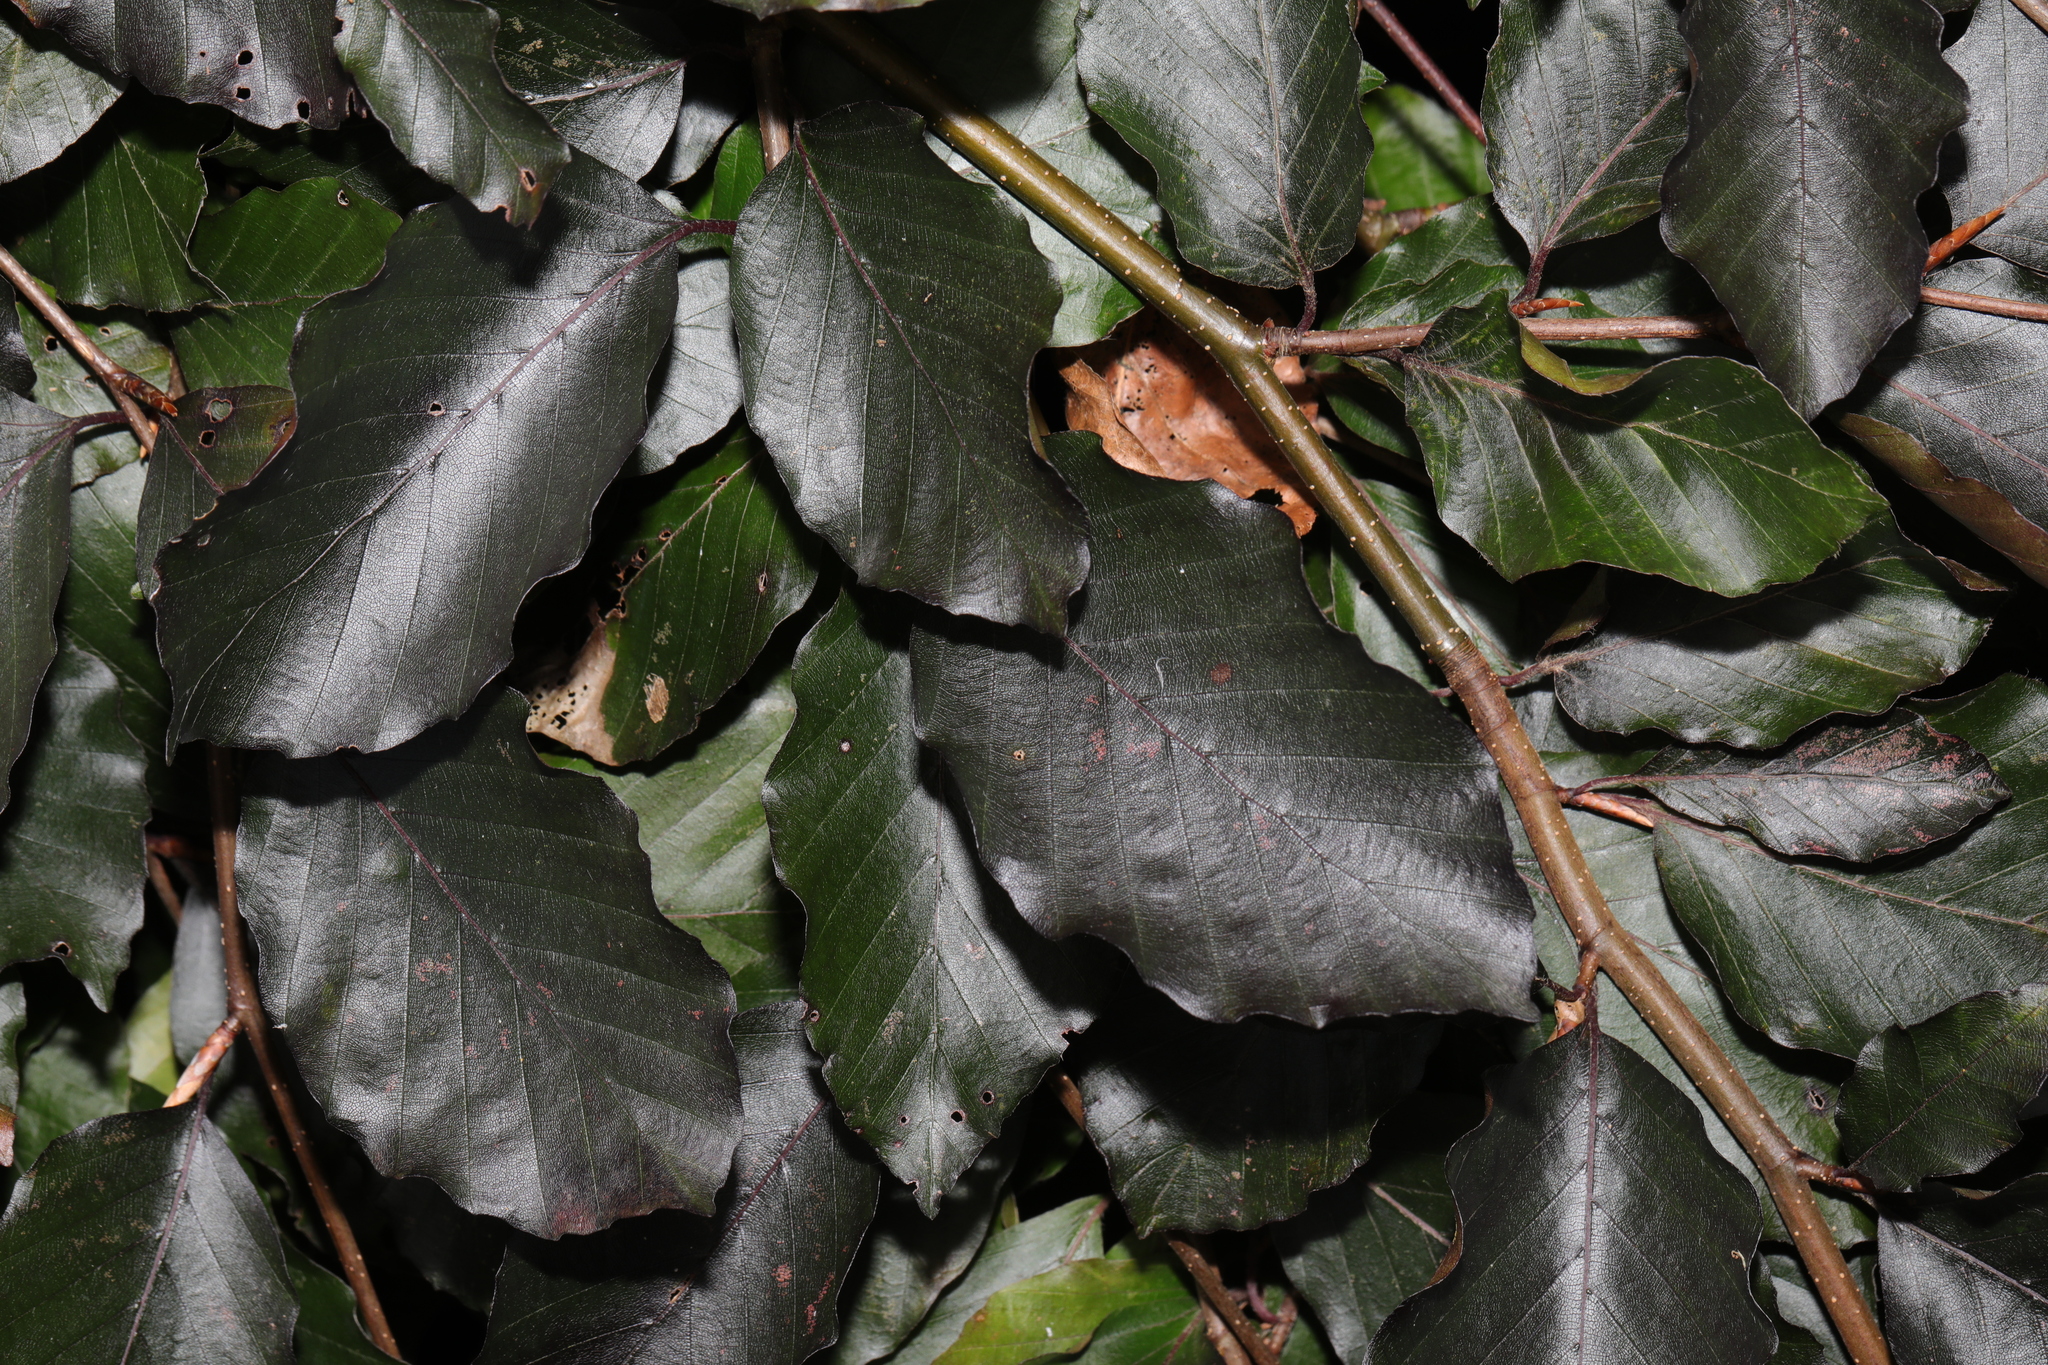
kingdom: Plantae
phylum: Tracheophyta
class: Magnoliopsida
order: Fagales
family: Fagaceae
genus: Fagus
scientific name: Fagus sylvatica
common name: Beech
